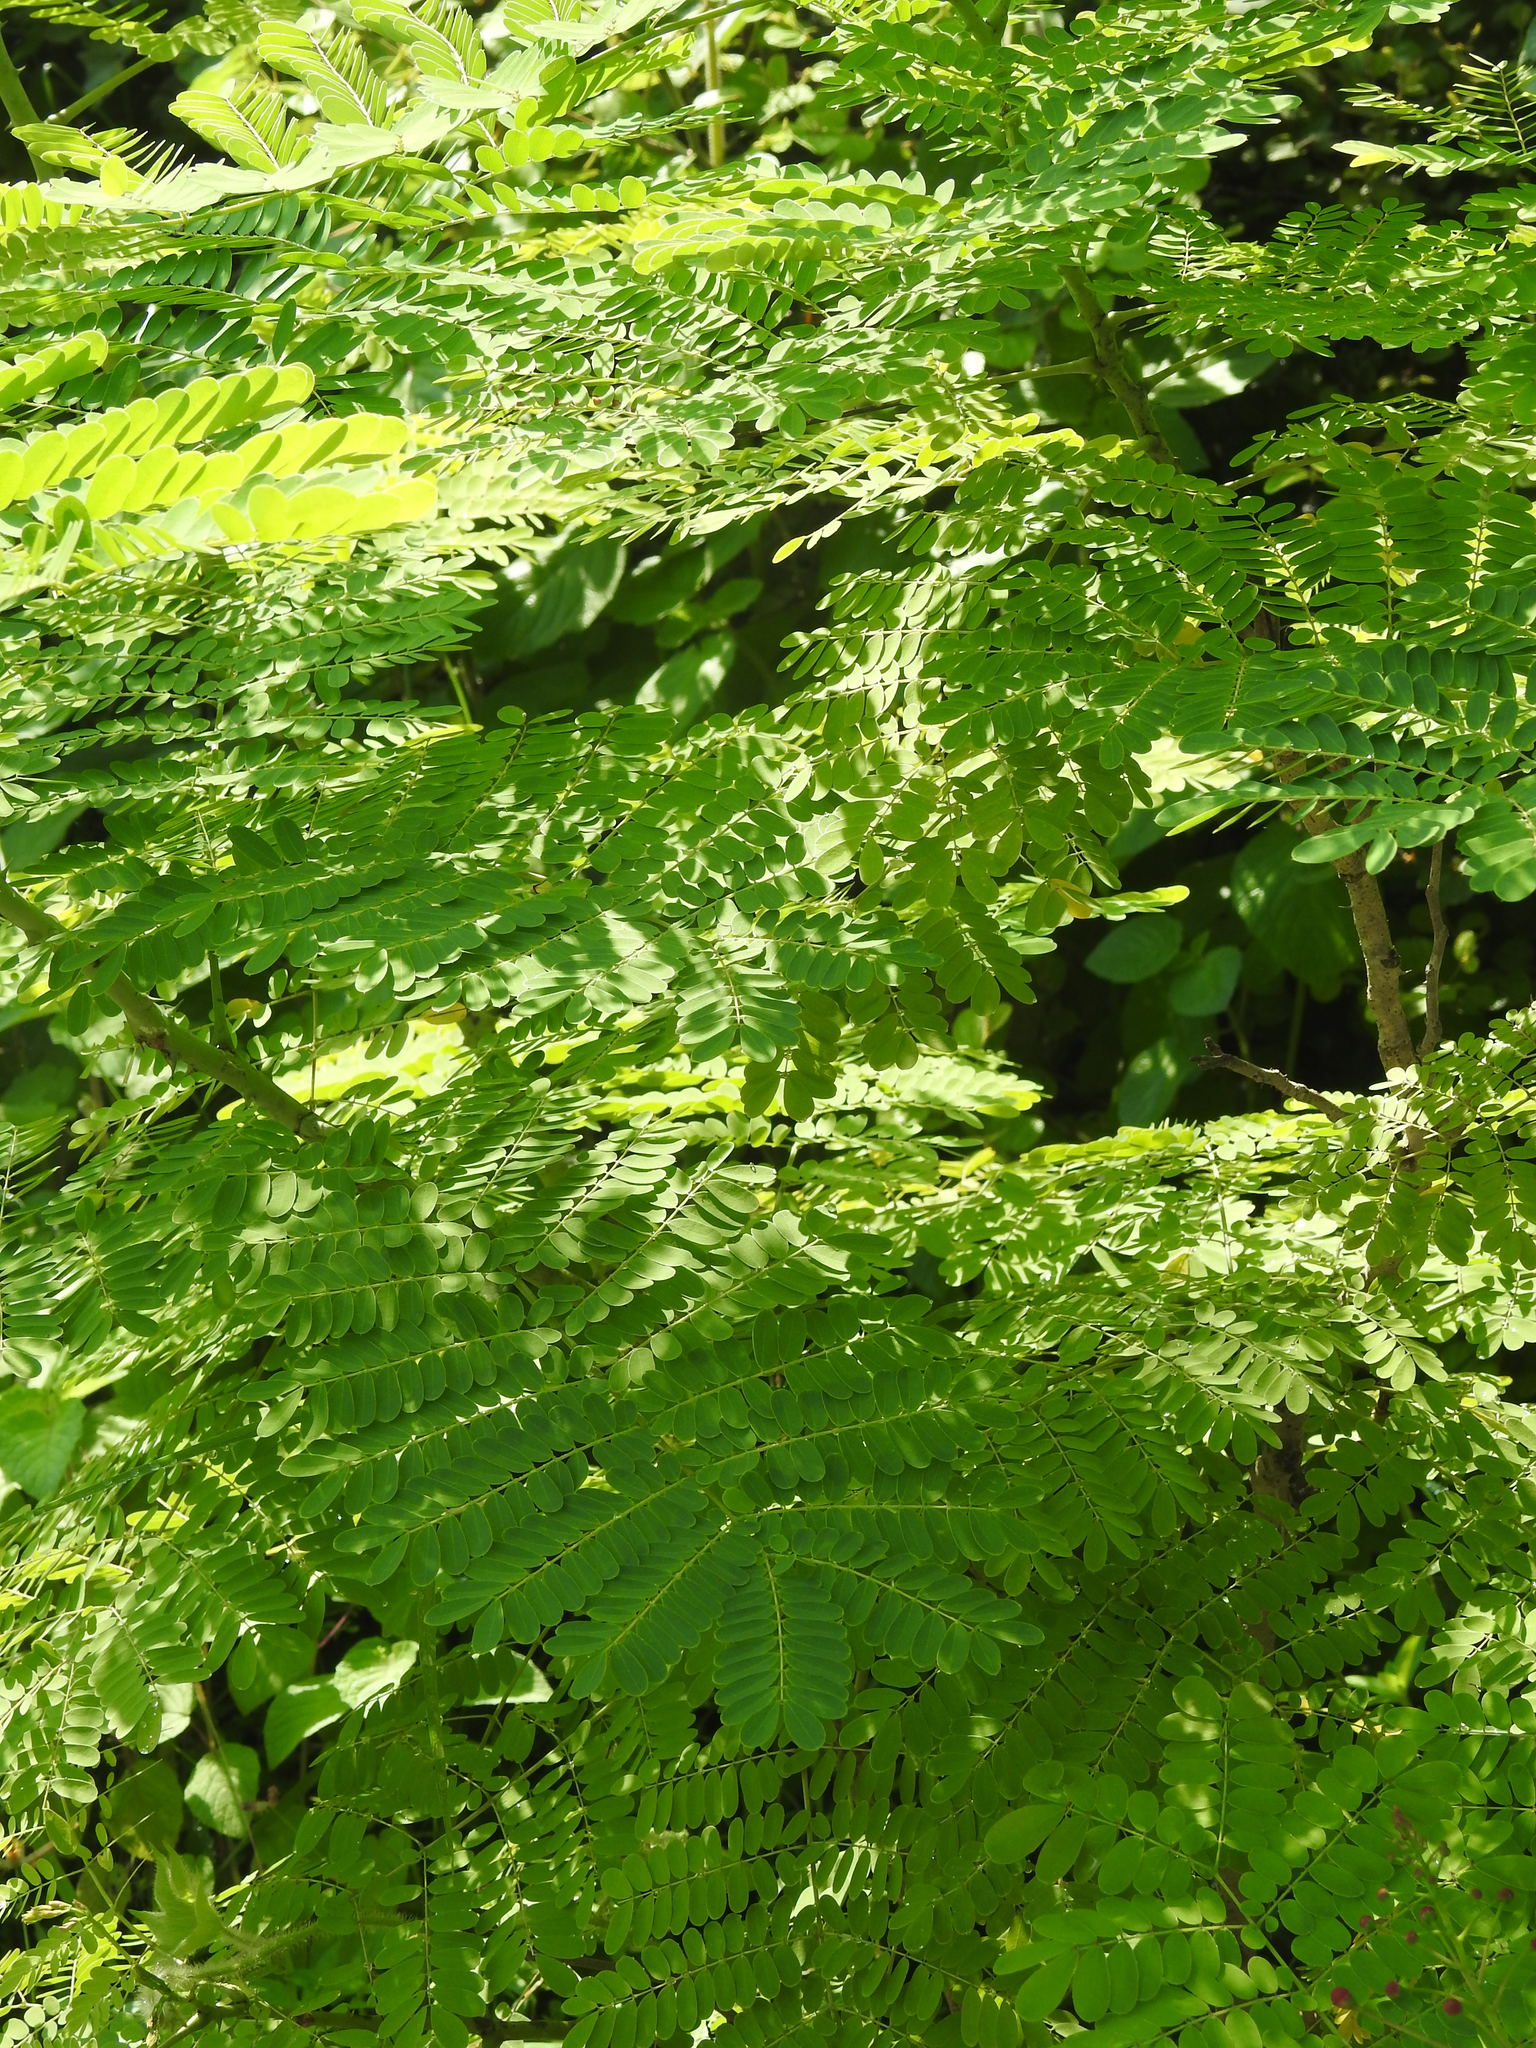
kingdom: Plantae
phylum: Tracheophyta
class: Magnoliopsida
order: Fabales
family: Fabaceae
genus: Caesalpinia
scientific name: Caesalpinia pulcherrima
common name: Pride-of-barbados
